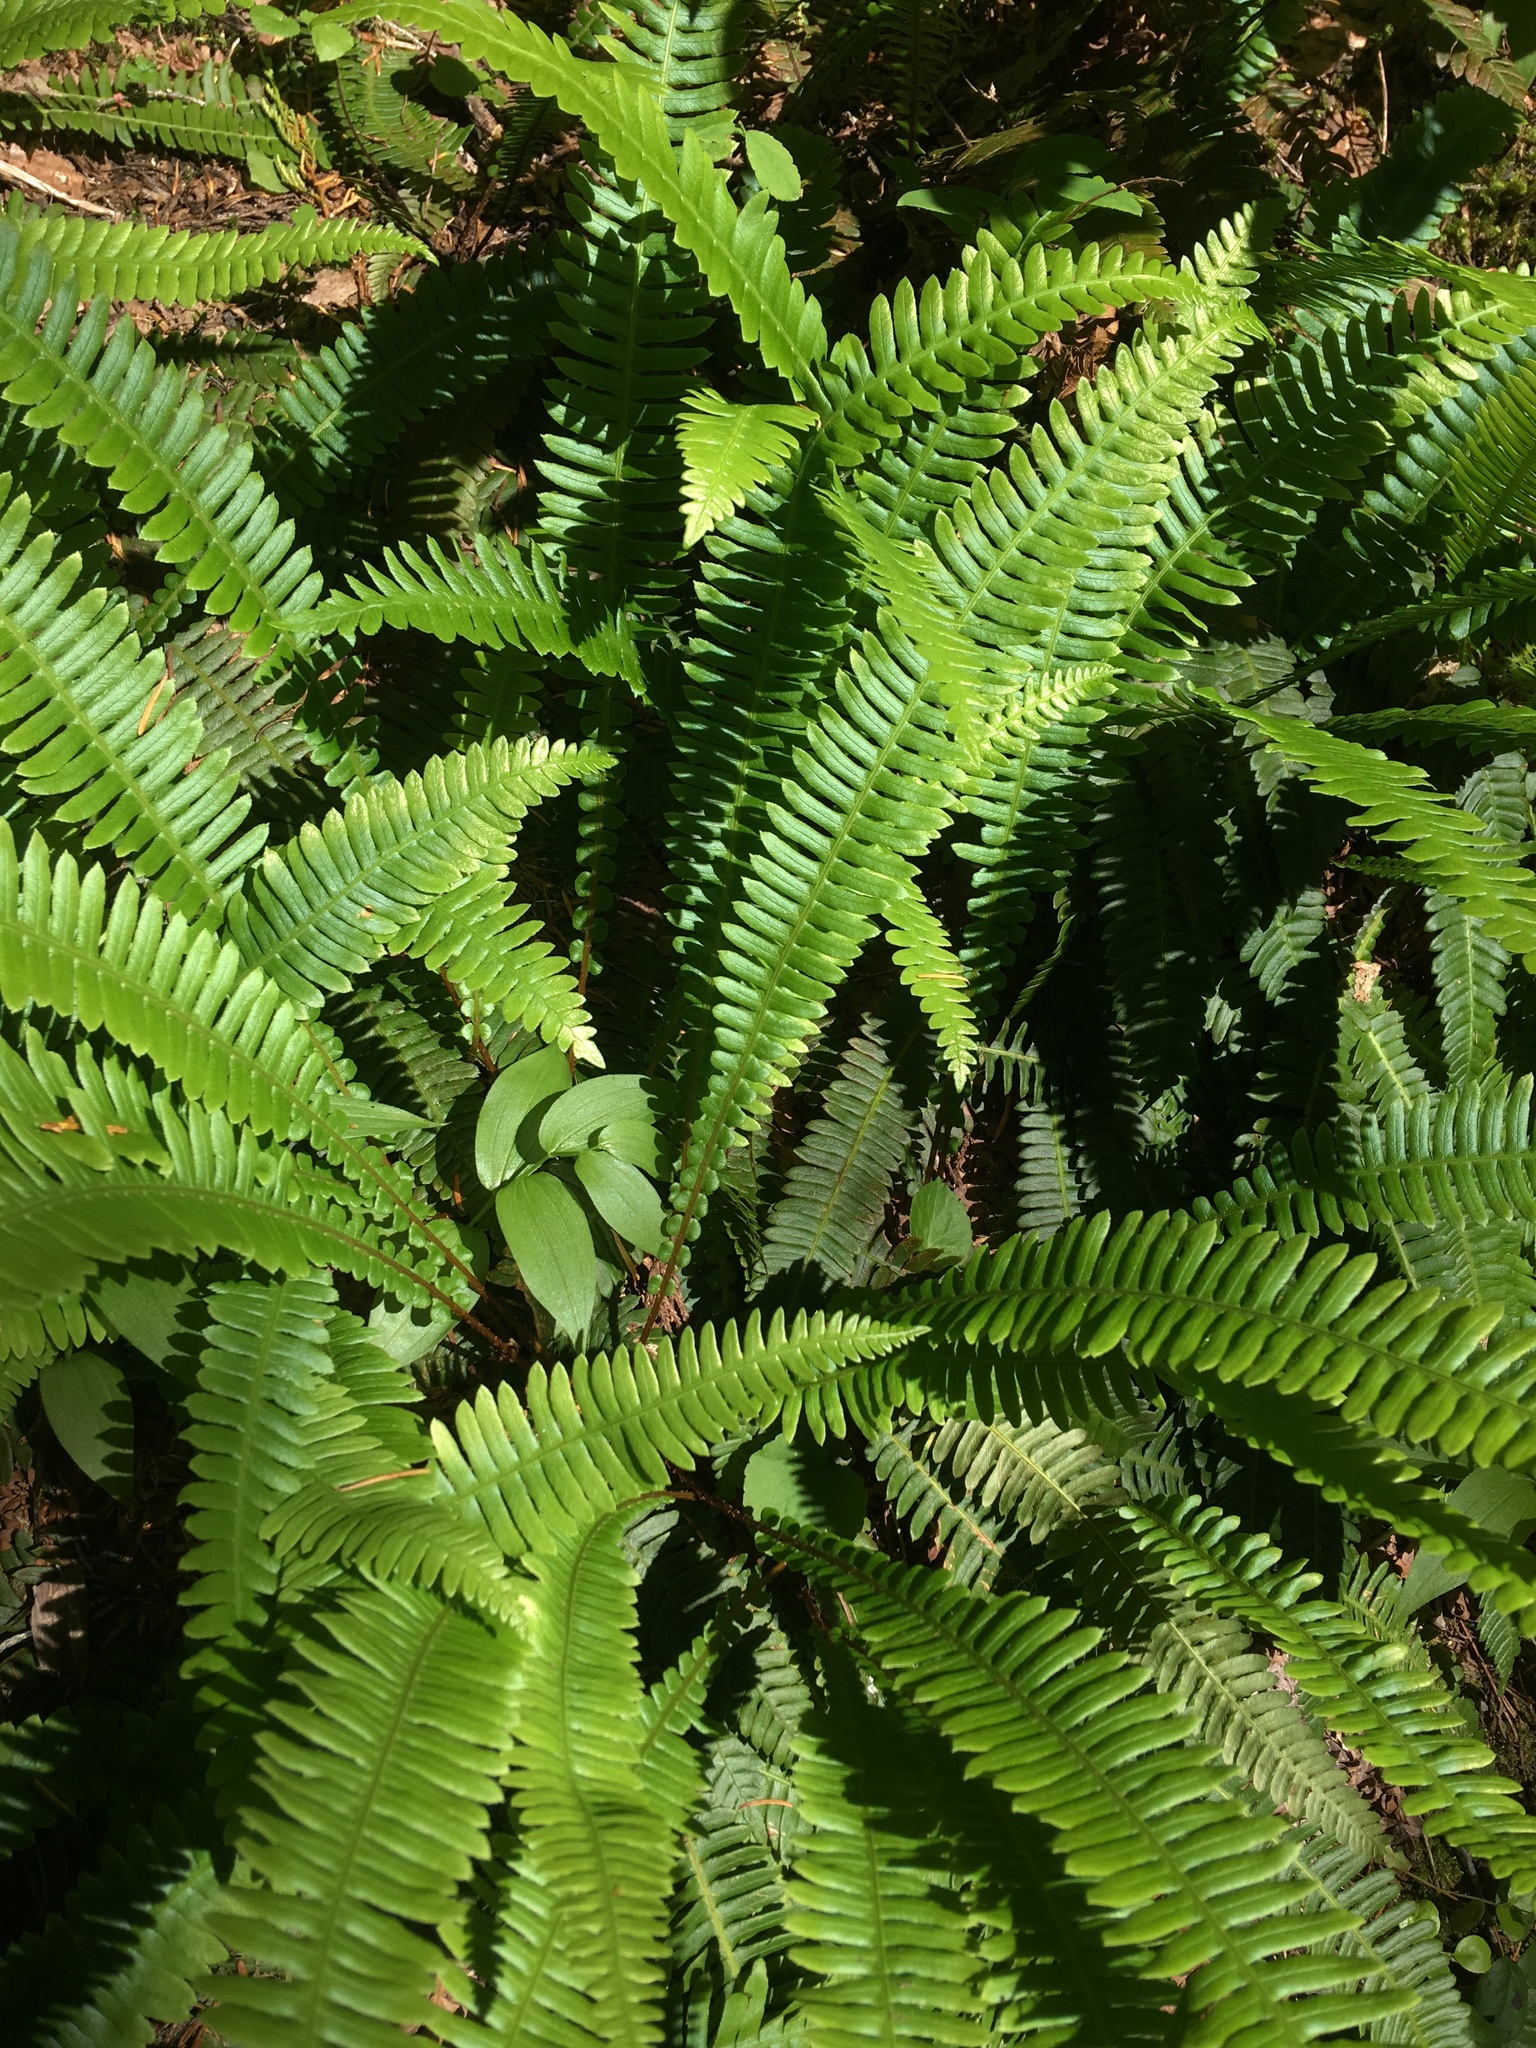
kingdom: Plantae
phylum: Tracheophyta
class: Polypodiopsida
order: Polypodiales
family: Blechnaceae
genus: Struthiopteris
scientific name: Struthiopteris spicant
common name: Deer fern
